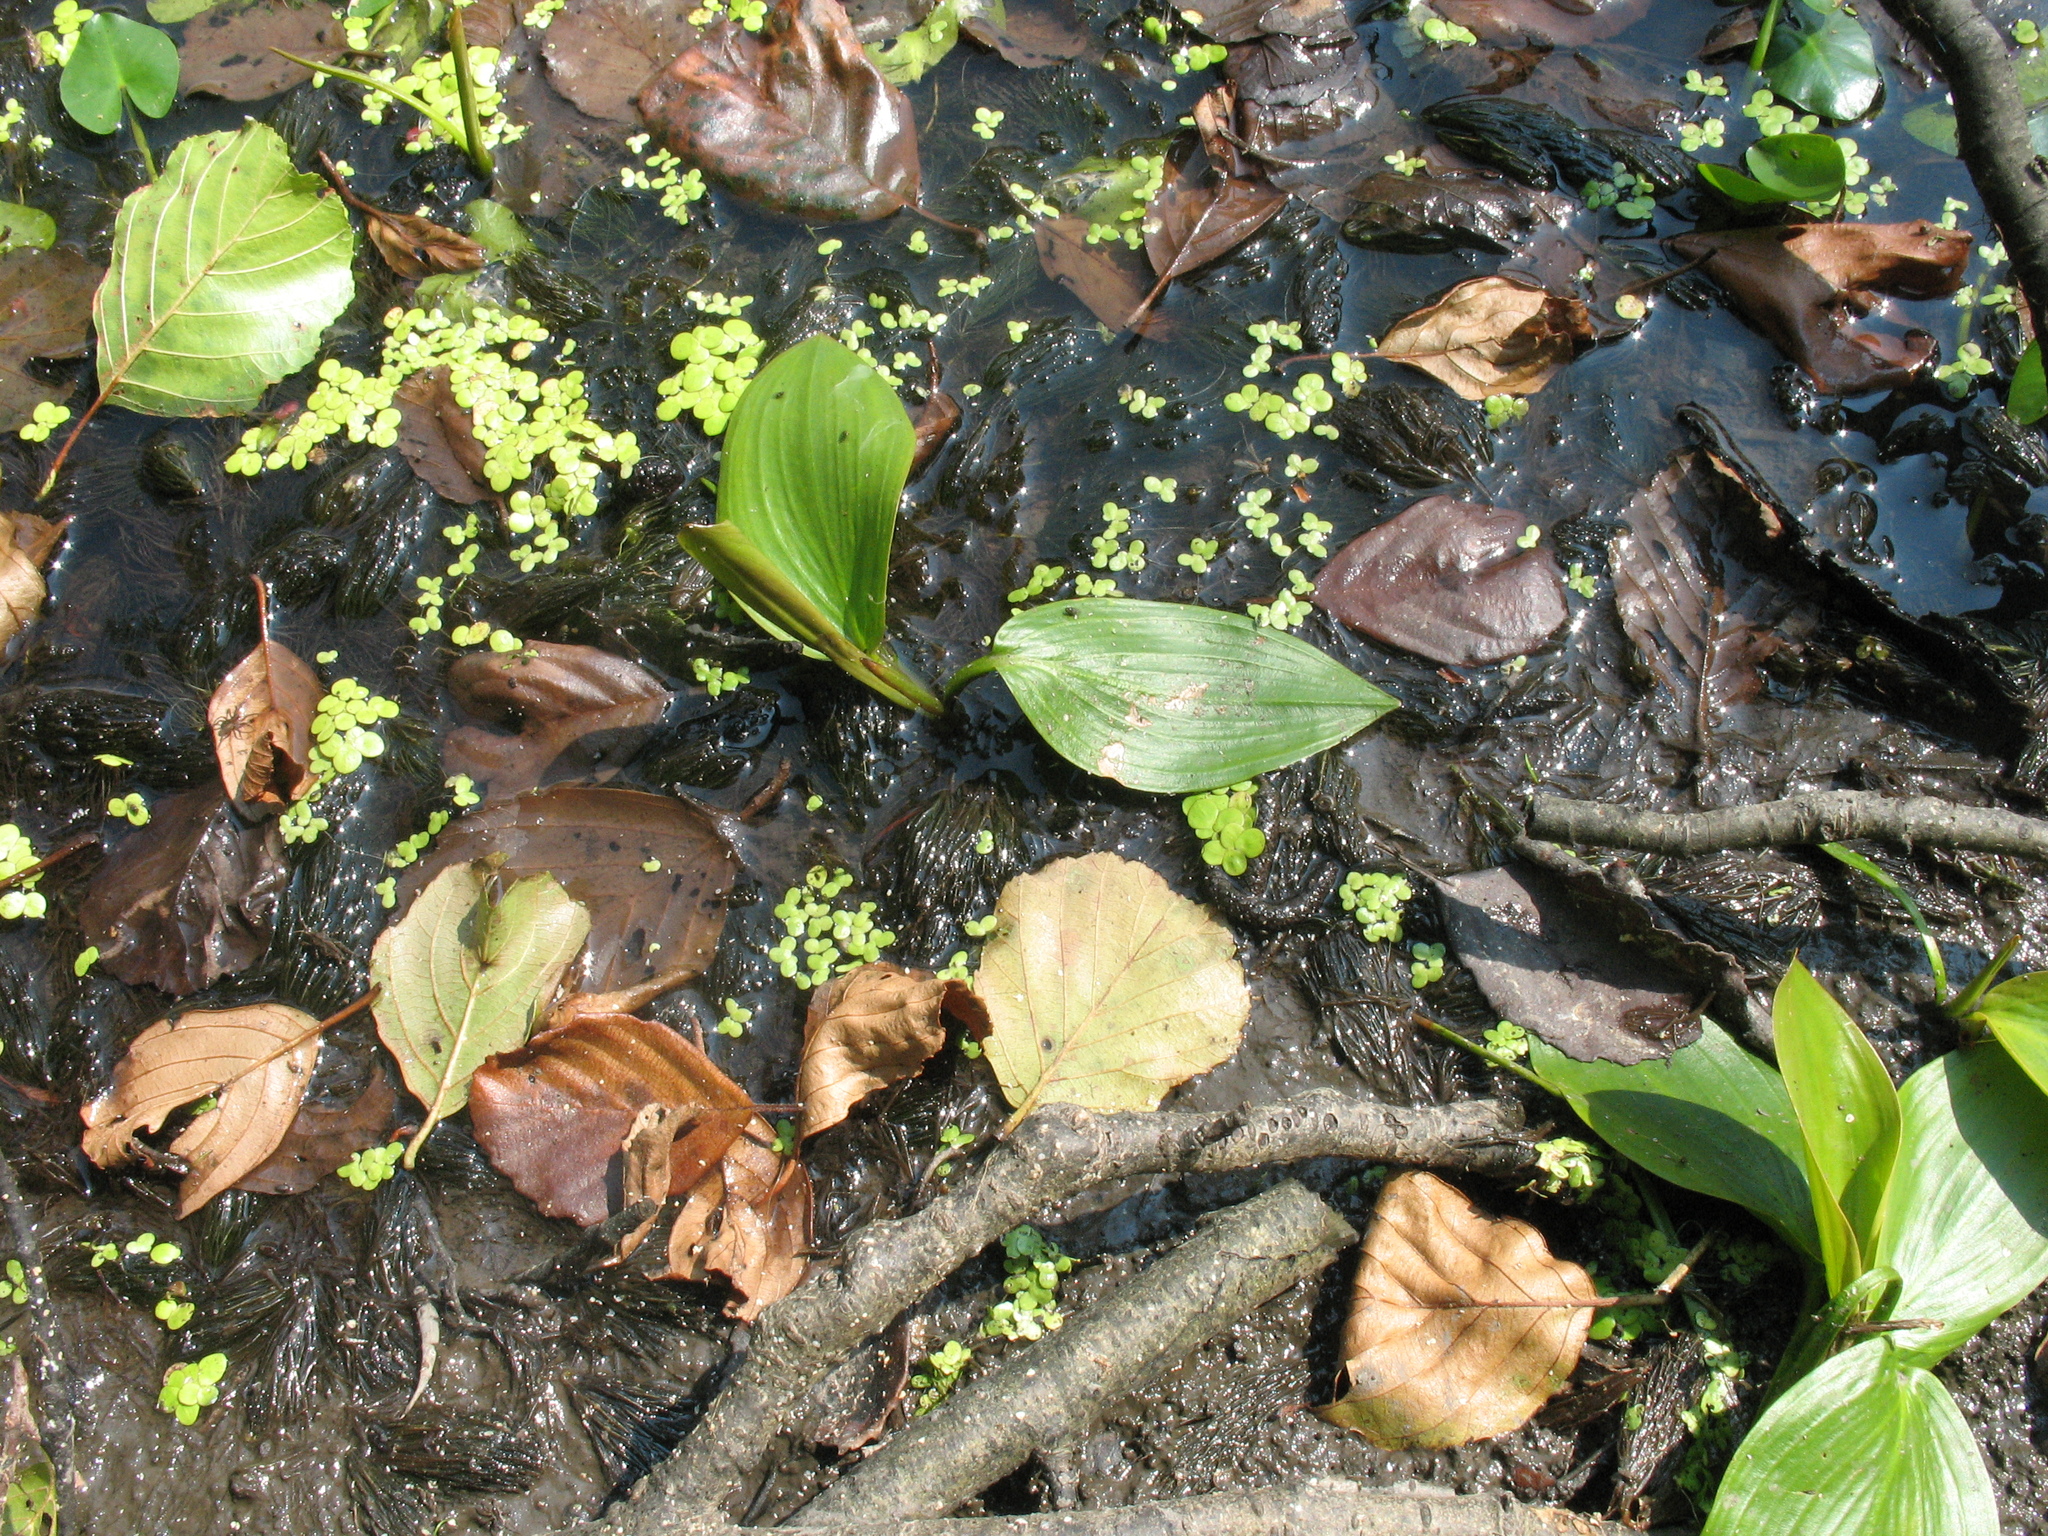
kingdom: Plantae
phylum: Tracheophyta
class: Liliopsida
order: Alismatales
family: Potamogetonaceae
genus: Potamogeton
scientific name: Potamogeton natans
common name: Broad-leaved pondweed
